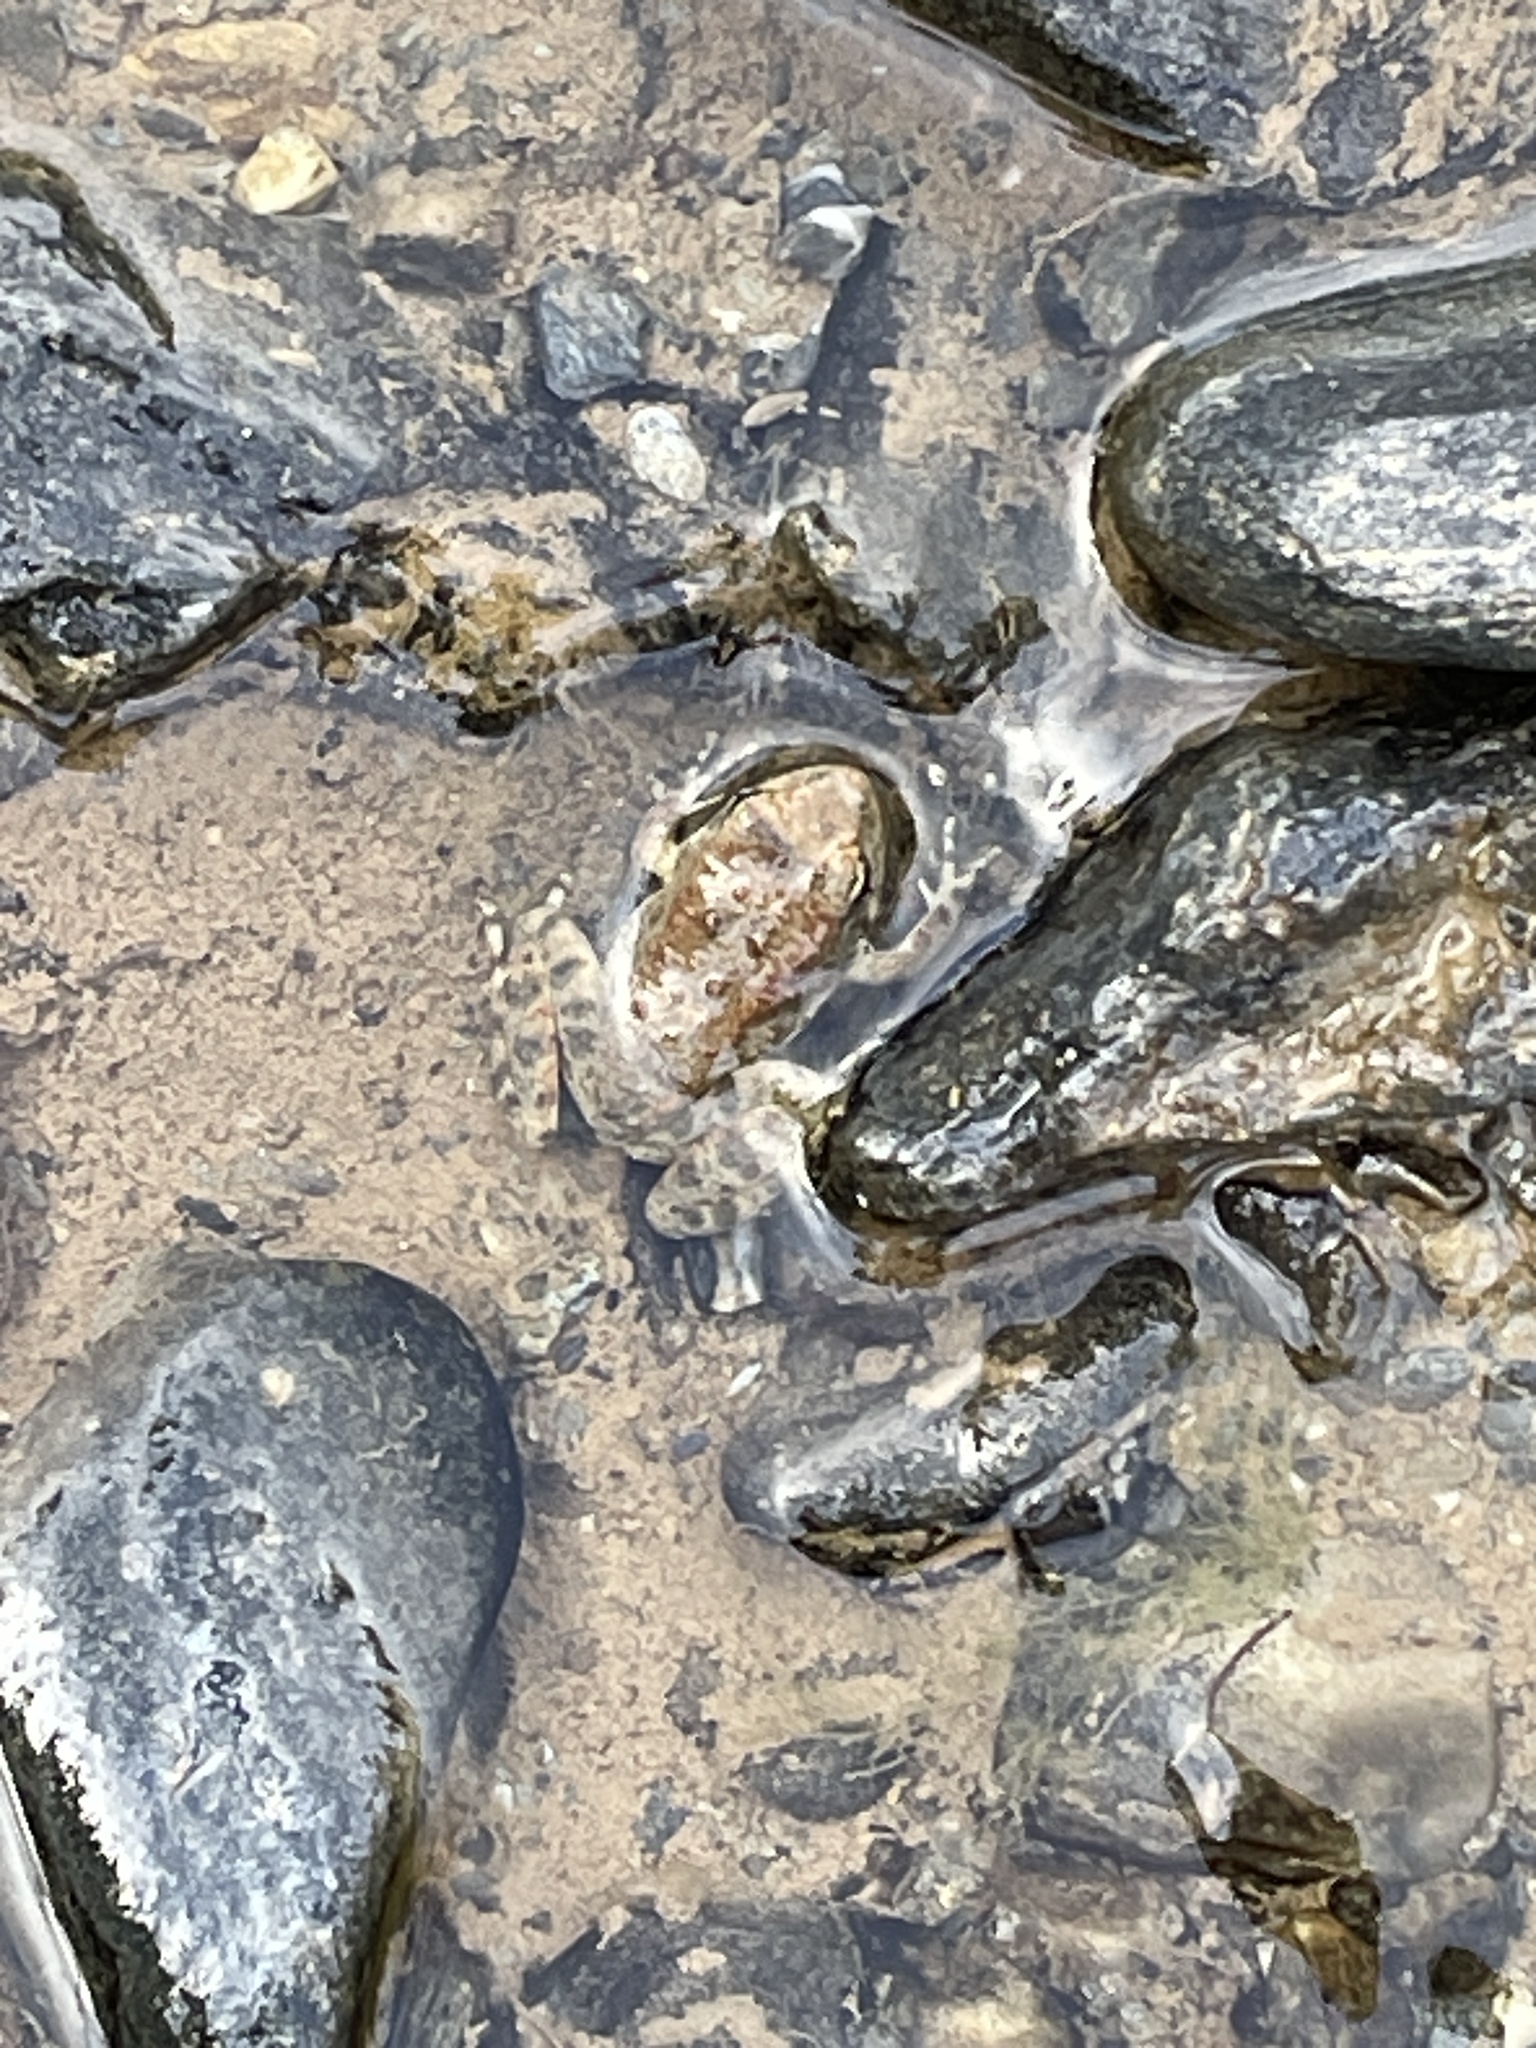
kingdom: Animalia
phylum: Chordata
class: Amphibia
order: Anura
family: Ranidae
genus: Rana
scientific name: Rana boylii
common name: Foothill yellow-legged frog
